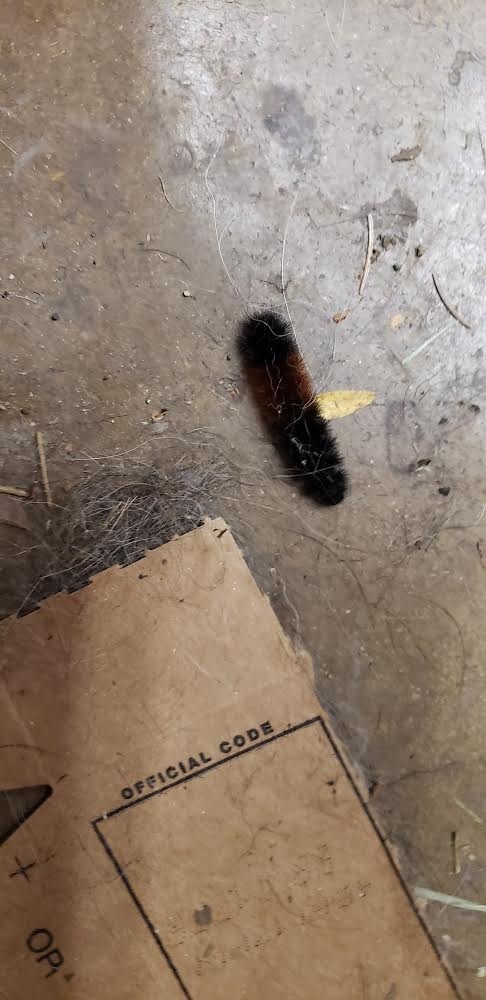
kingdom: Animalia
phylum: Arthropoda
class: Insecta
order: Lepidoptera
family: Erebidae
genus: Pyrrharctia
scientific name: Pyrrharctia isabella
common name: Isabella tiger moth
